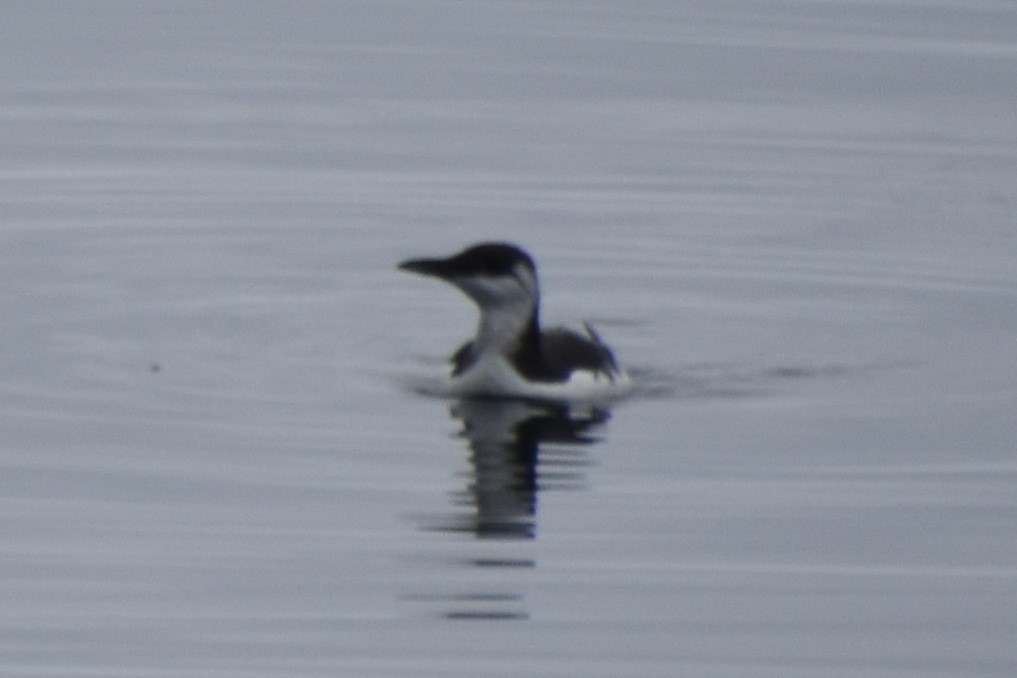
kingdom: Animalia
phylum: Chordata
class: Aves
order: Charadriiformes
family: Alcidae
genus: Uria
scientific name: Uria aalge
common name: Common murre
